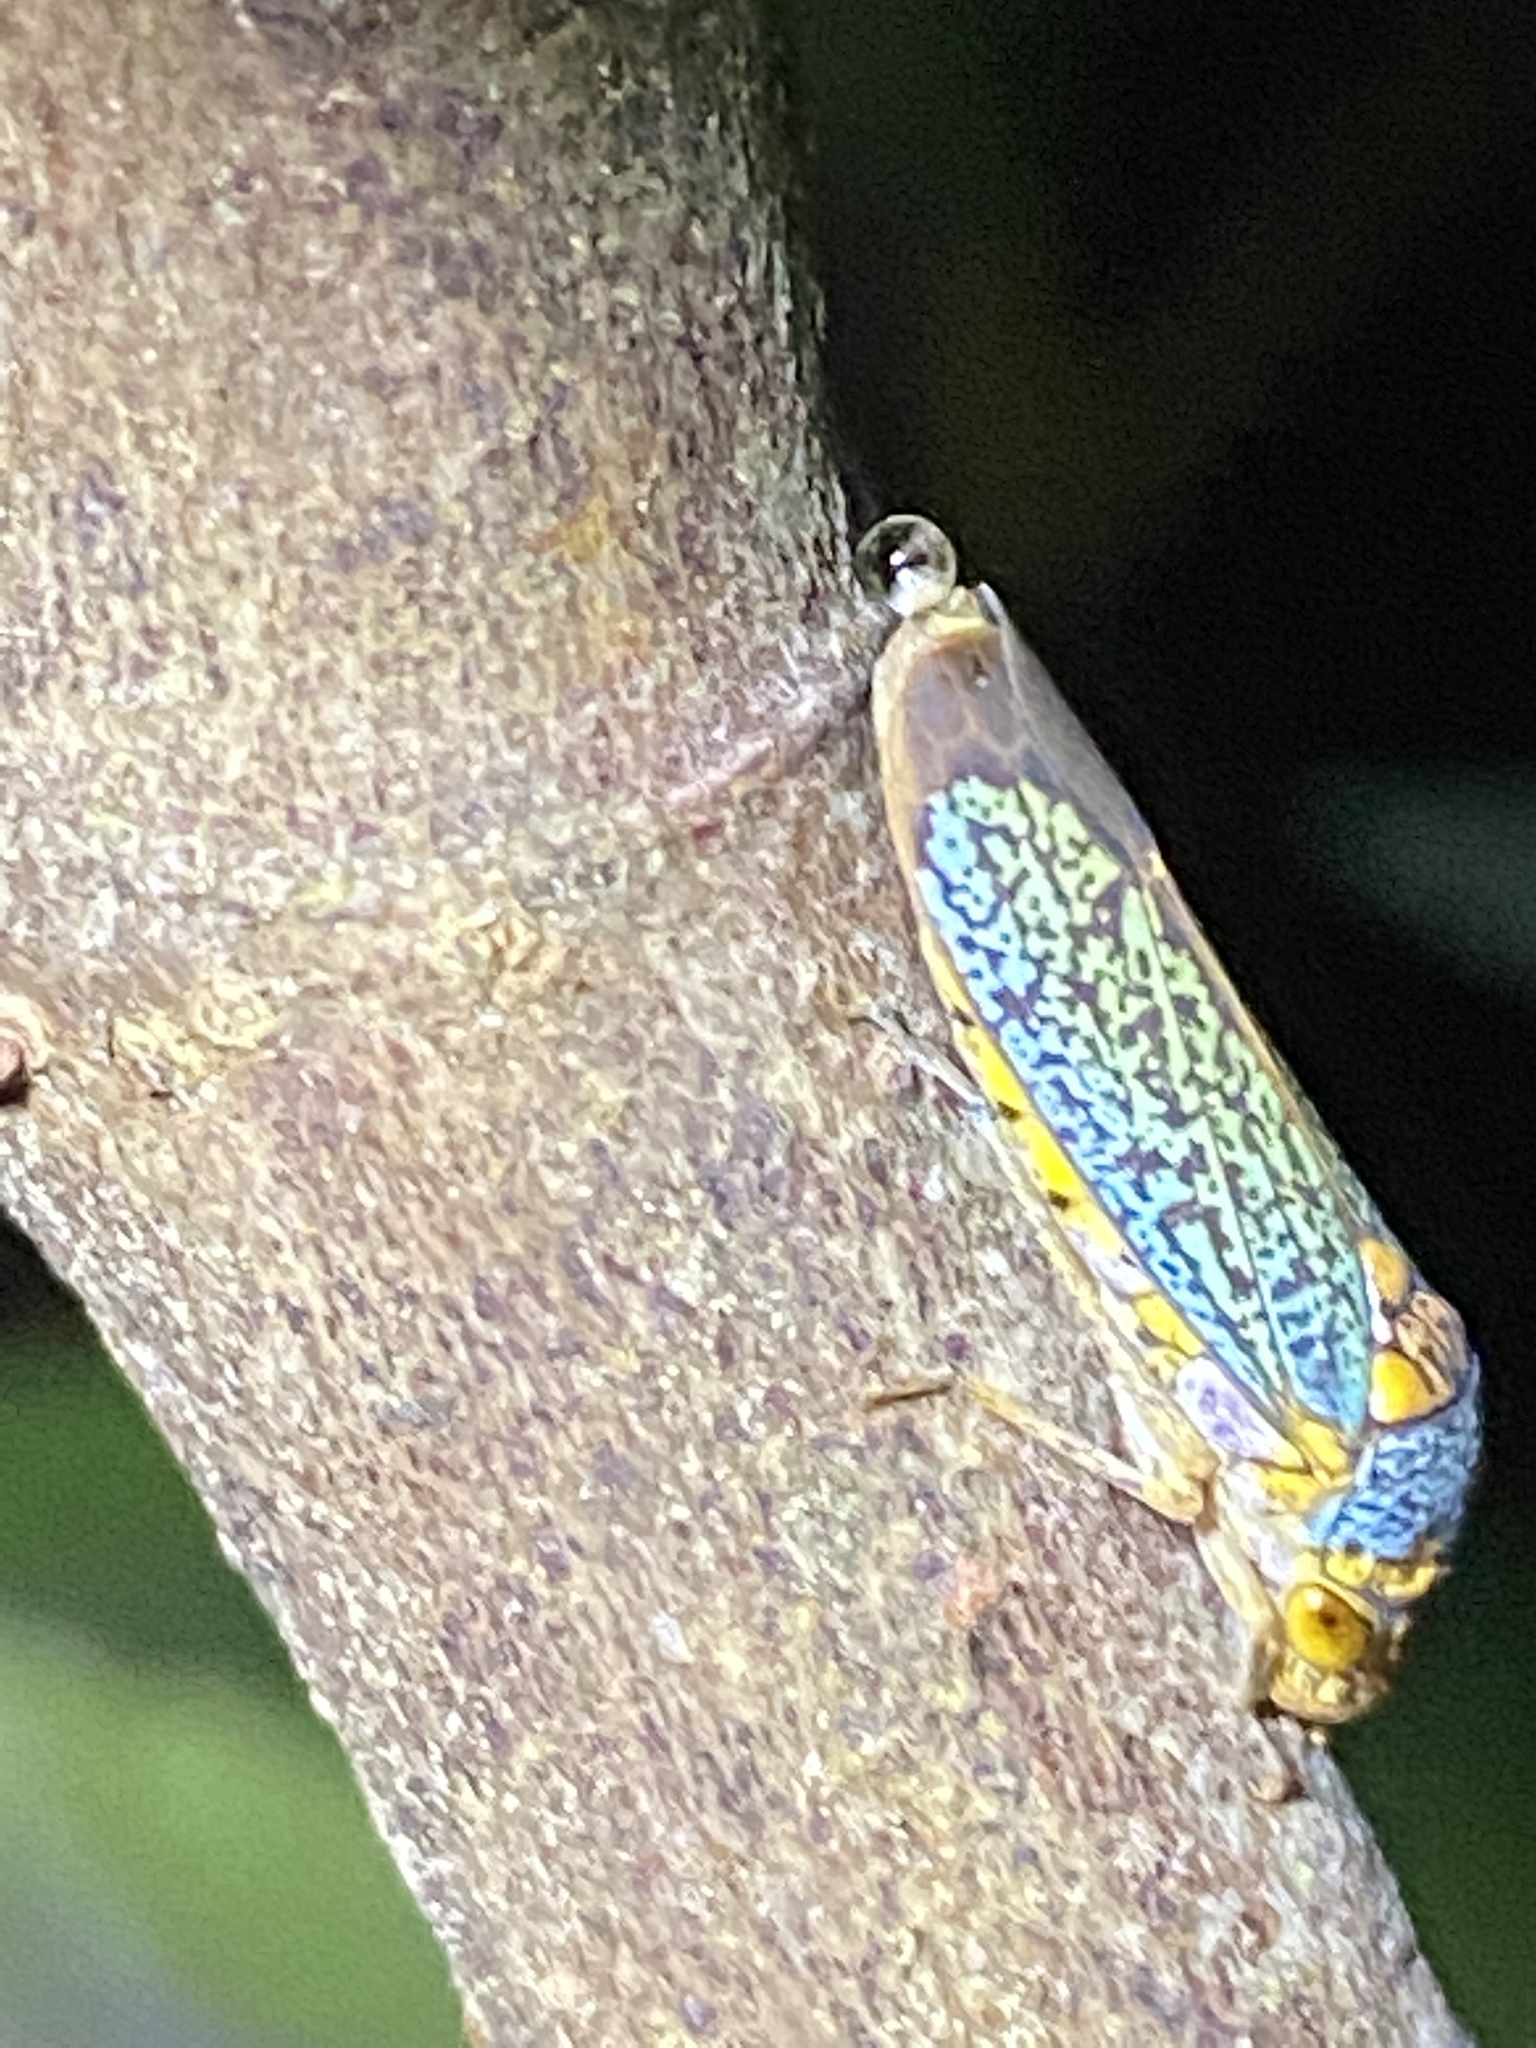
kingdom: Animalia
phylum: Arthropoda
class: Insecta
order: Hemiptera
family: Cicadellidae
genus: Oncometopia
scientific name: Oncometopia orbona
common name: Broad-headed sharpshooter
